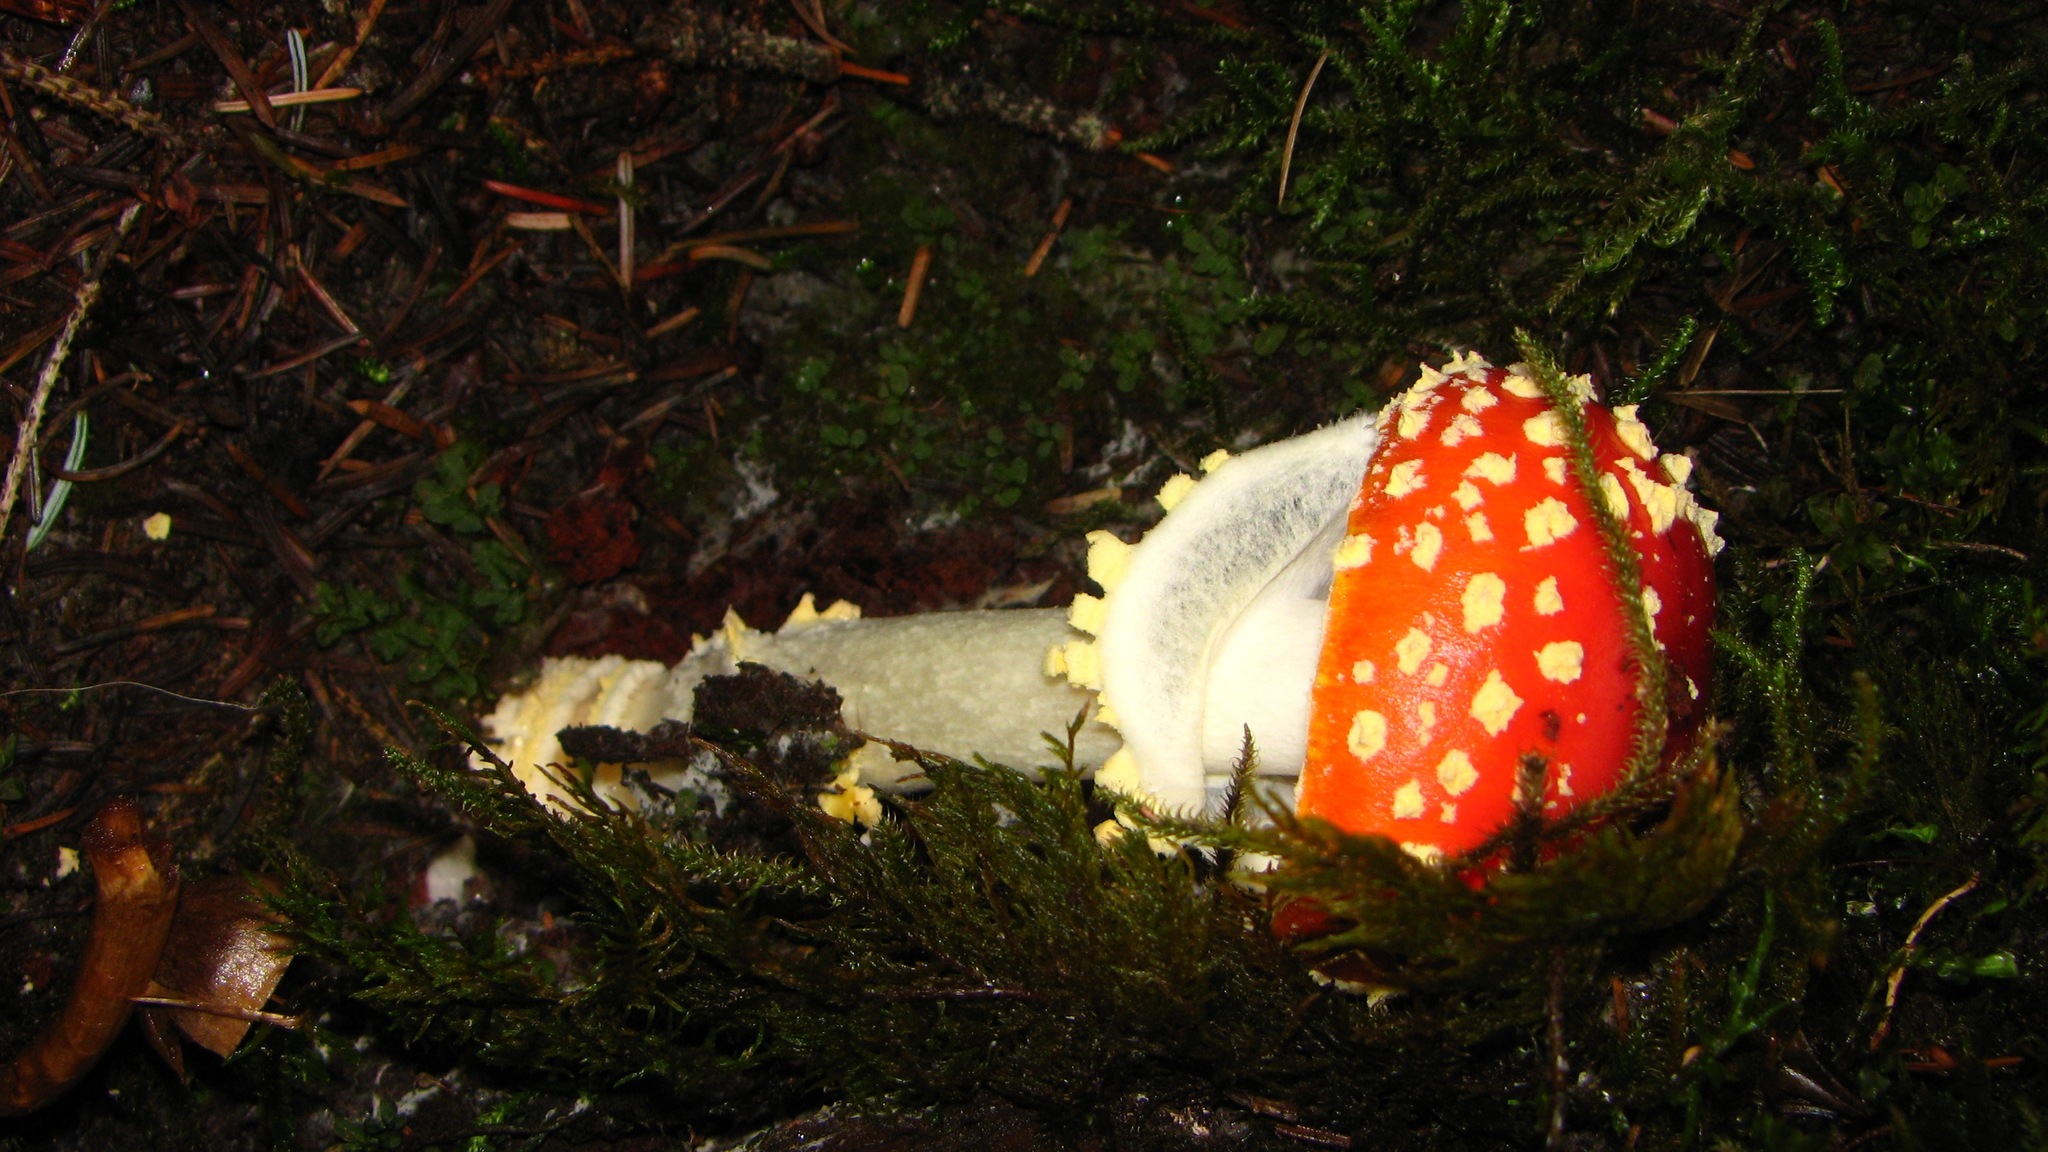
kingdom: Fungi
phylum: Basidiomycota
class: Agaricomycetes
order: Agaricales
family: Amanitaceae
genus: Amanita
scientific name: Amanita muscaria
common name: Fly agaric
